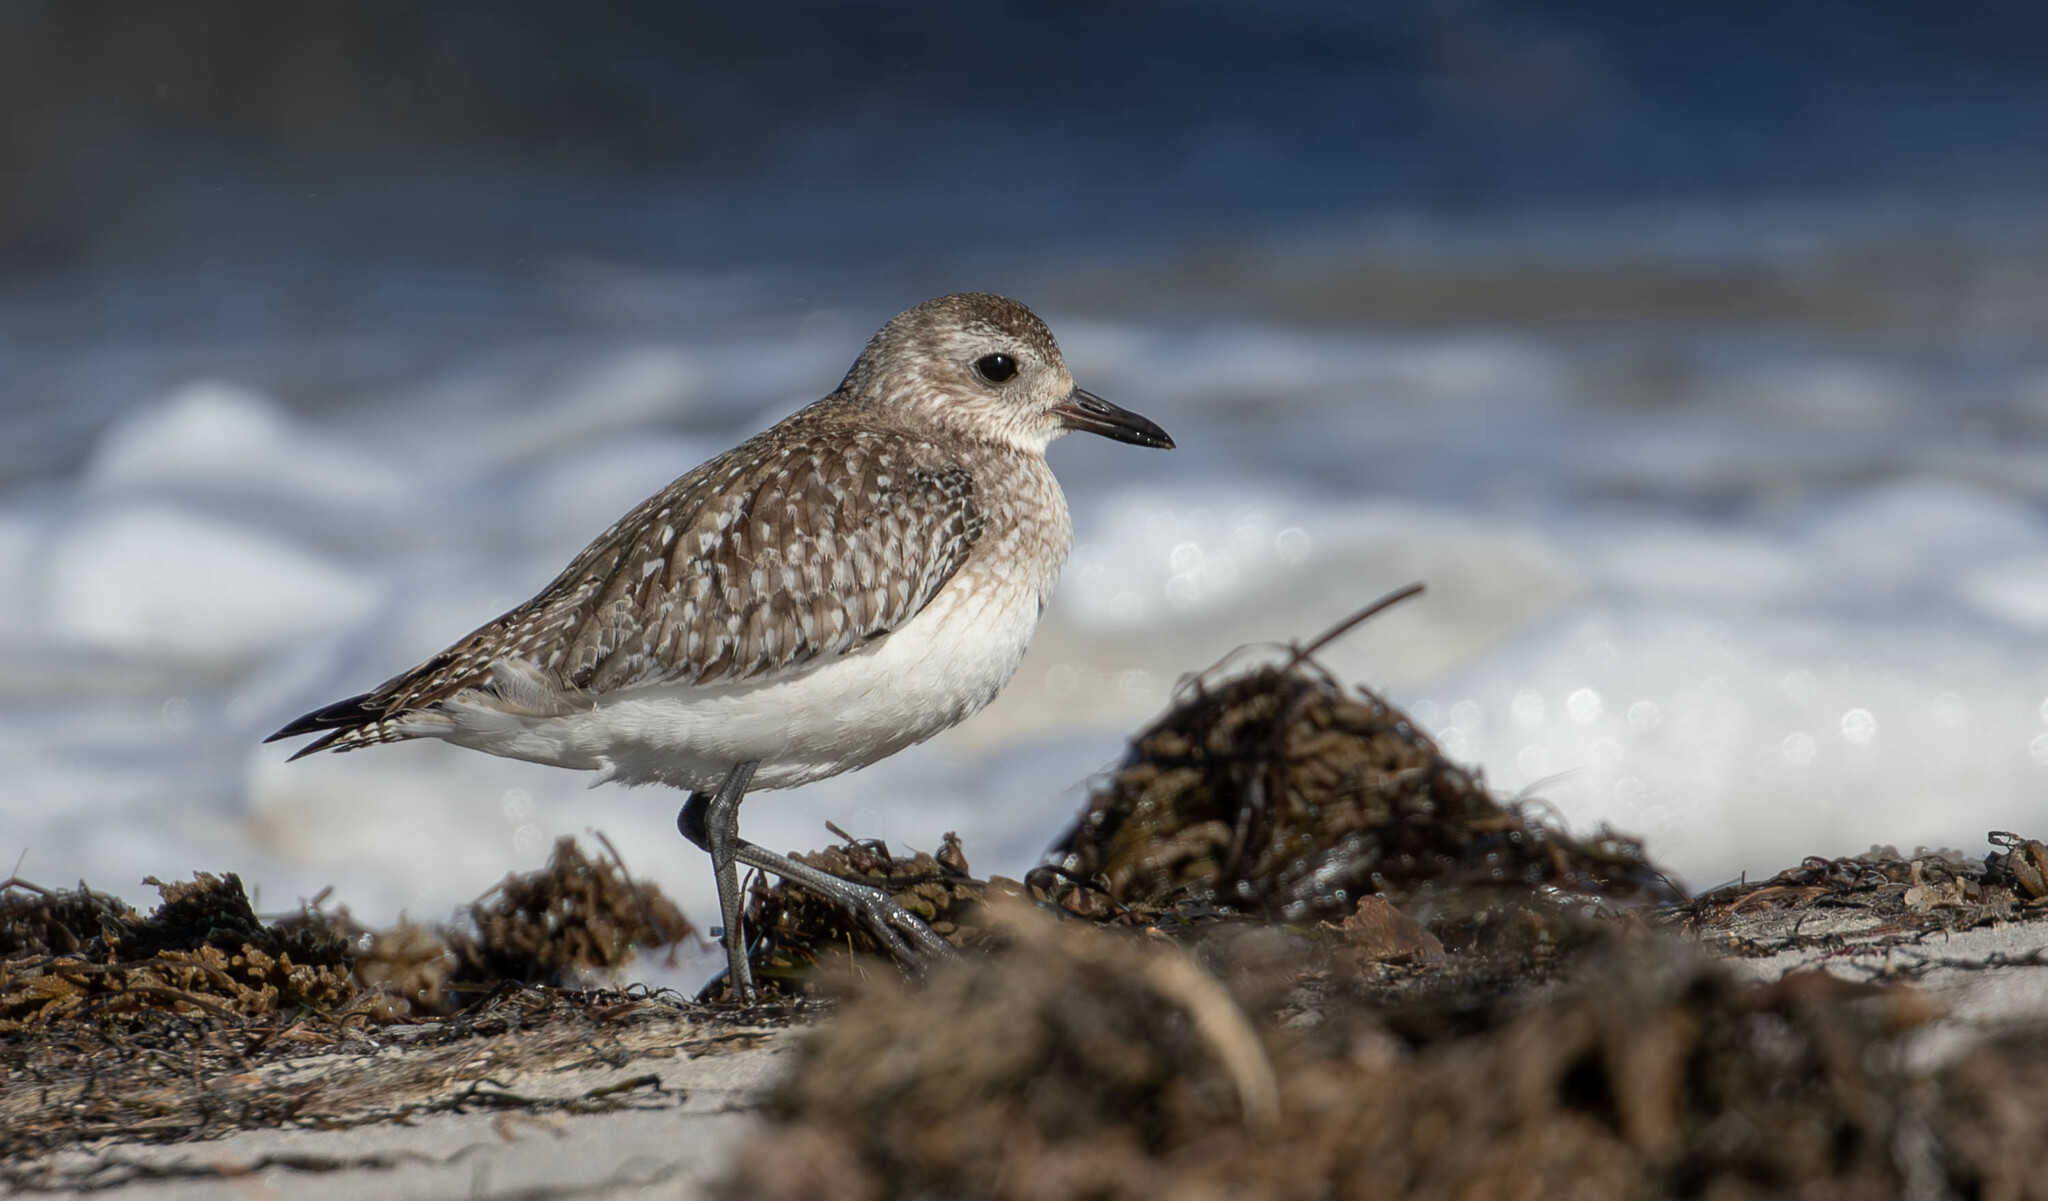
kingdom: Animalia
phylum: Chordata
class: Aves
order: Charadriiformes
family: Charadriidae
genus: Pluvialis
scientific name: Pluvialis squatarola
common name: Grey plover
